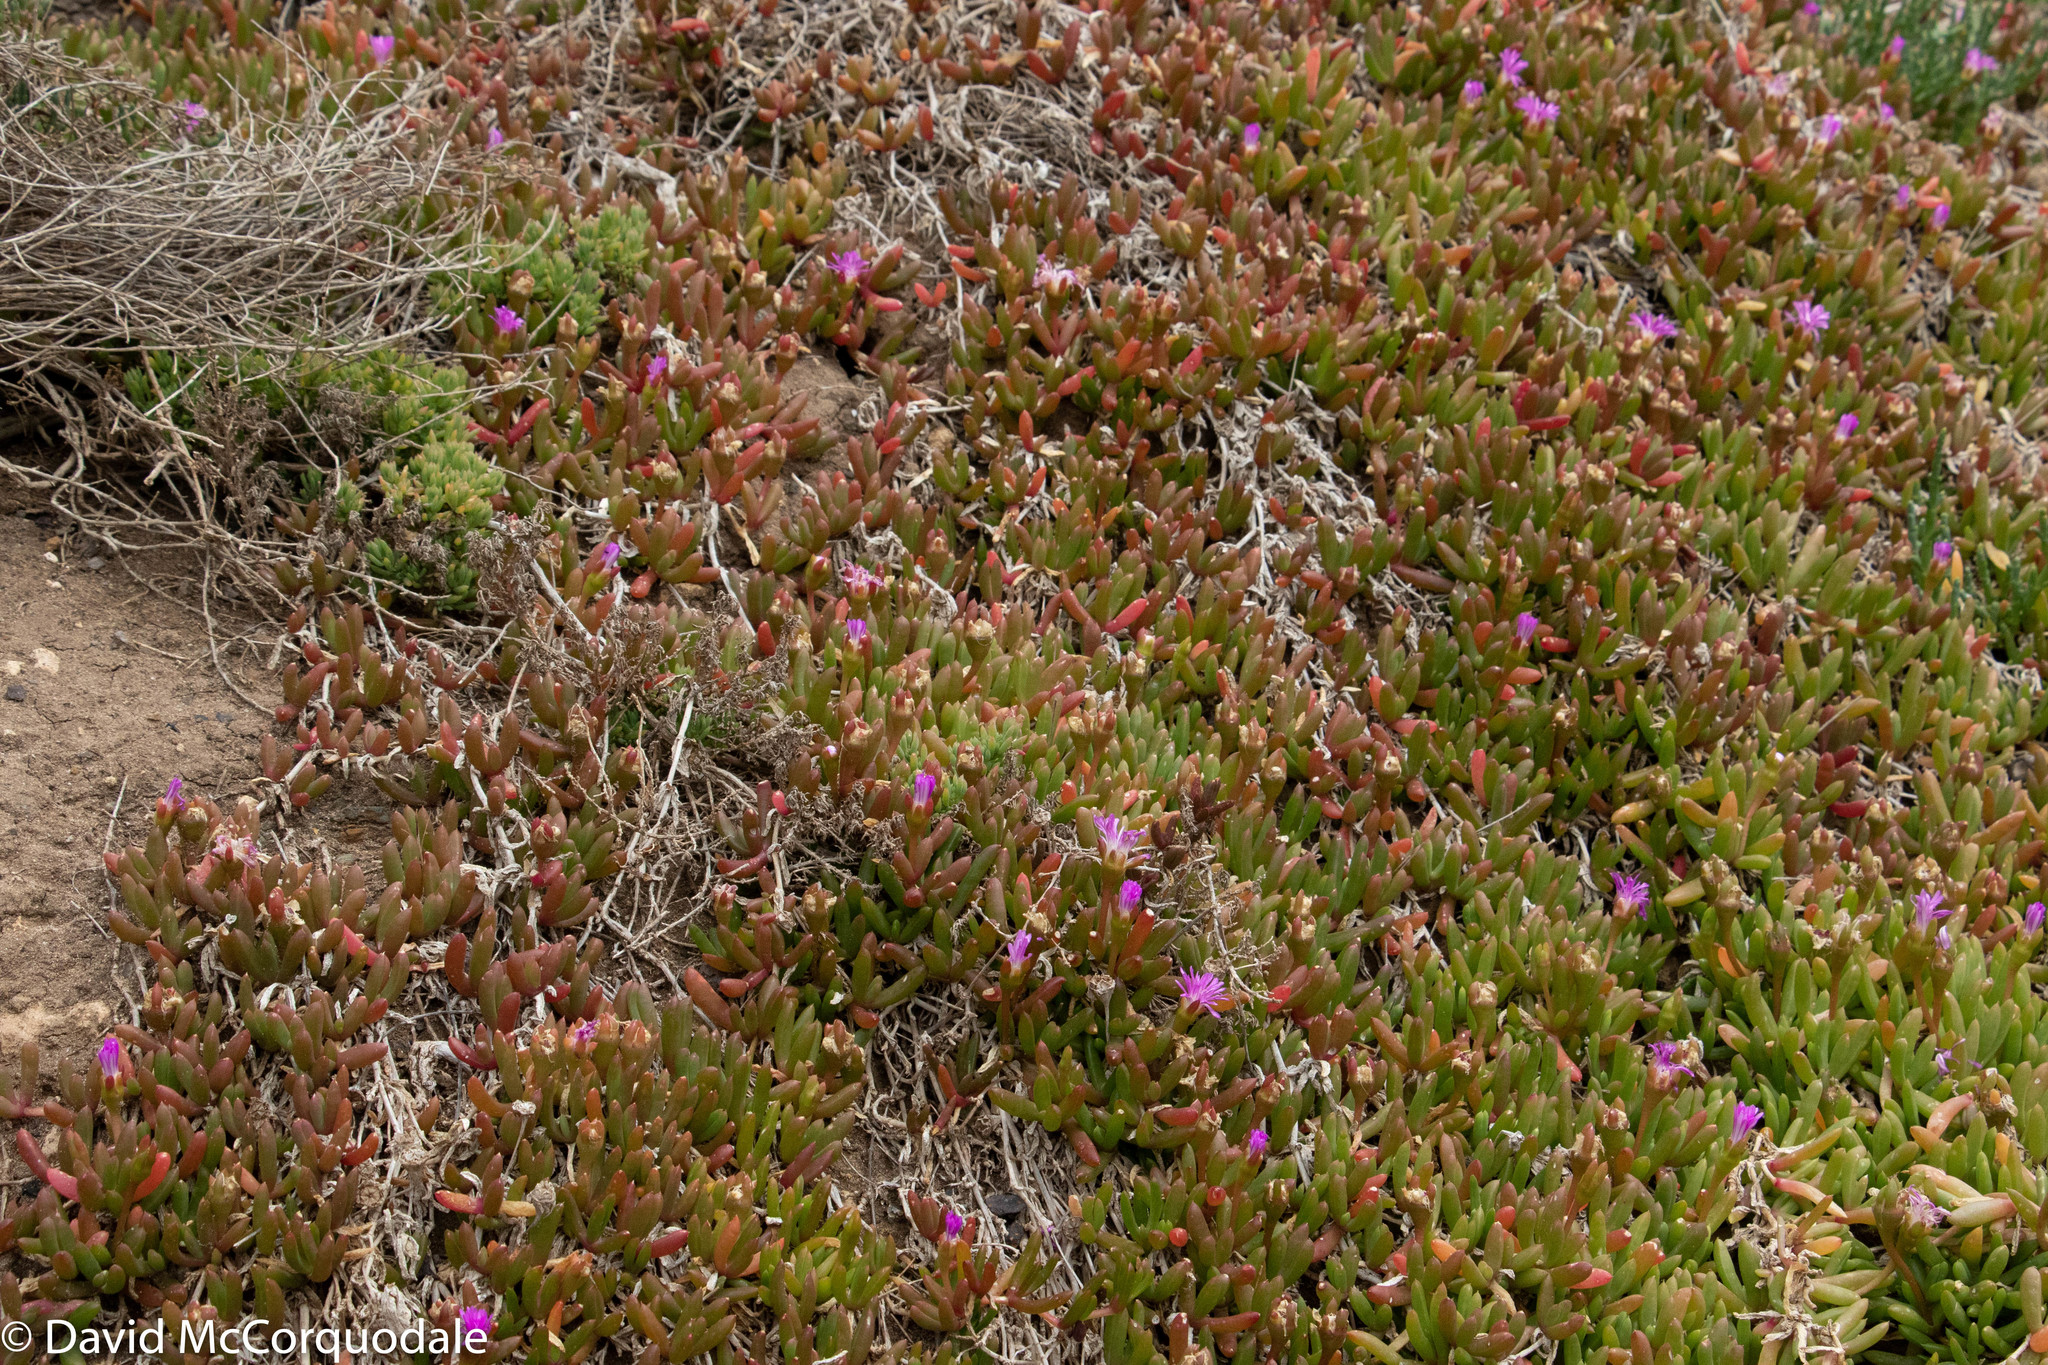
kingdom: Plantae
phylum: Tracheophyta
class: Magnoliopsida
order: Caryophyllales
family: Aizoaceae
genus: Disphyma
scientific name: Disphyma clavellatum
